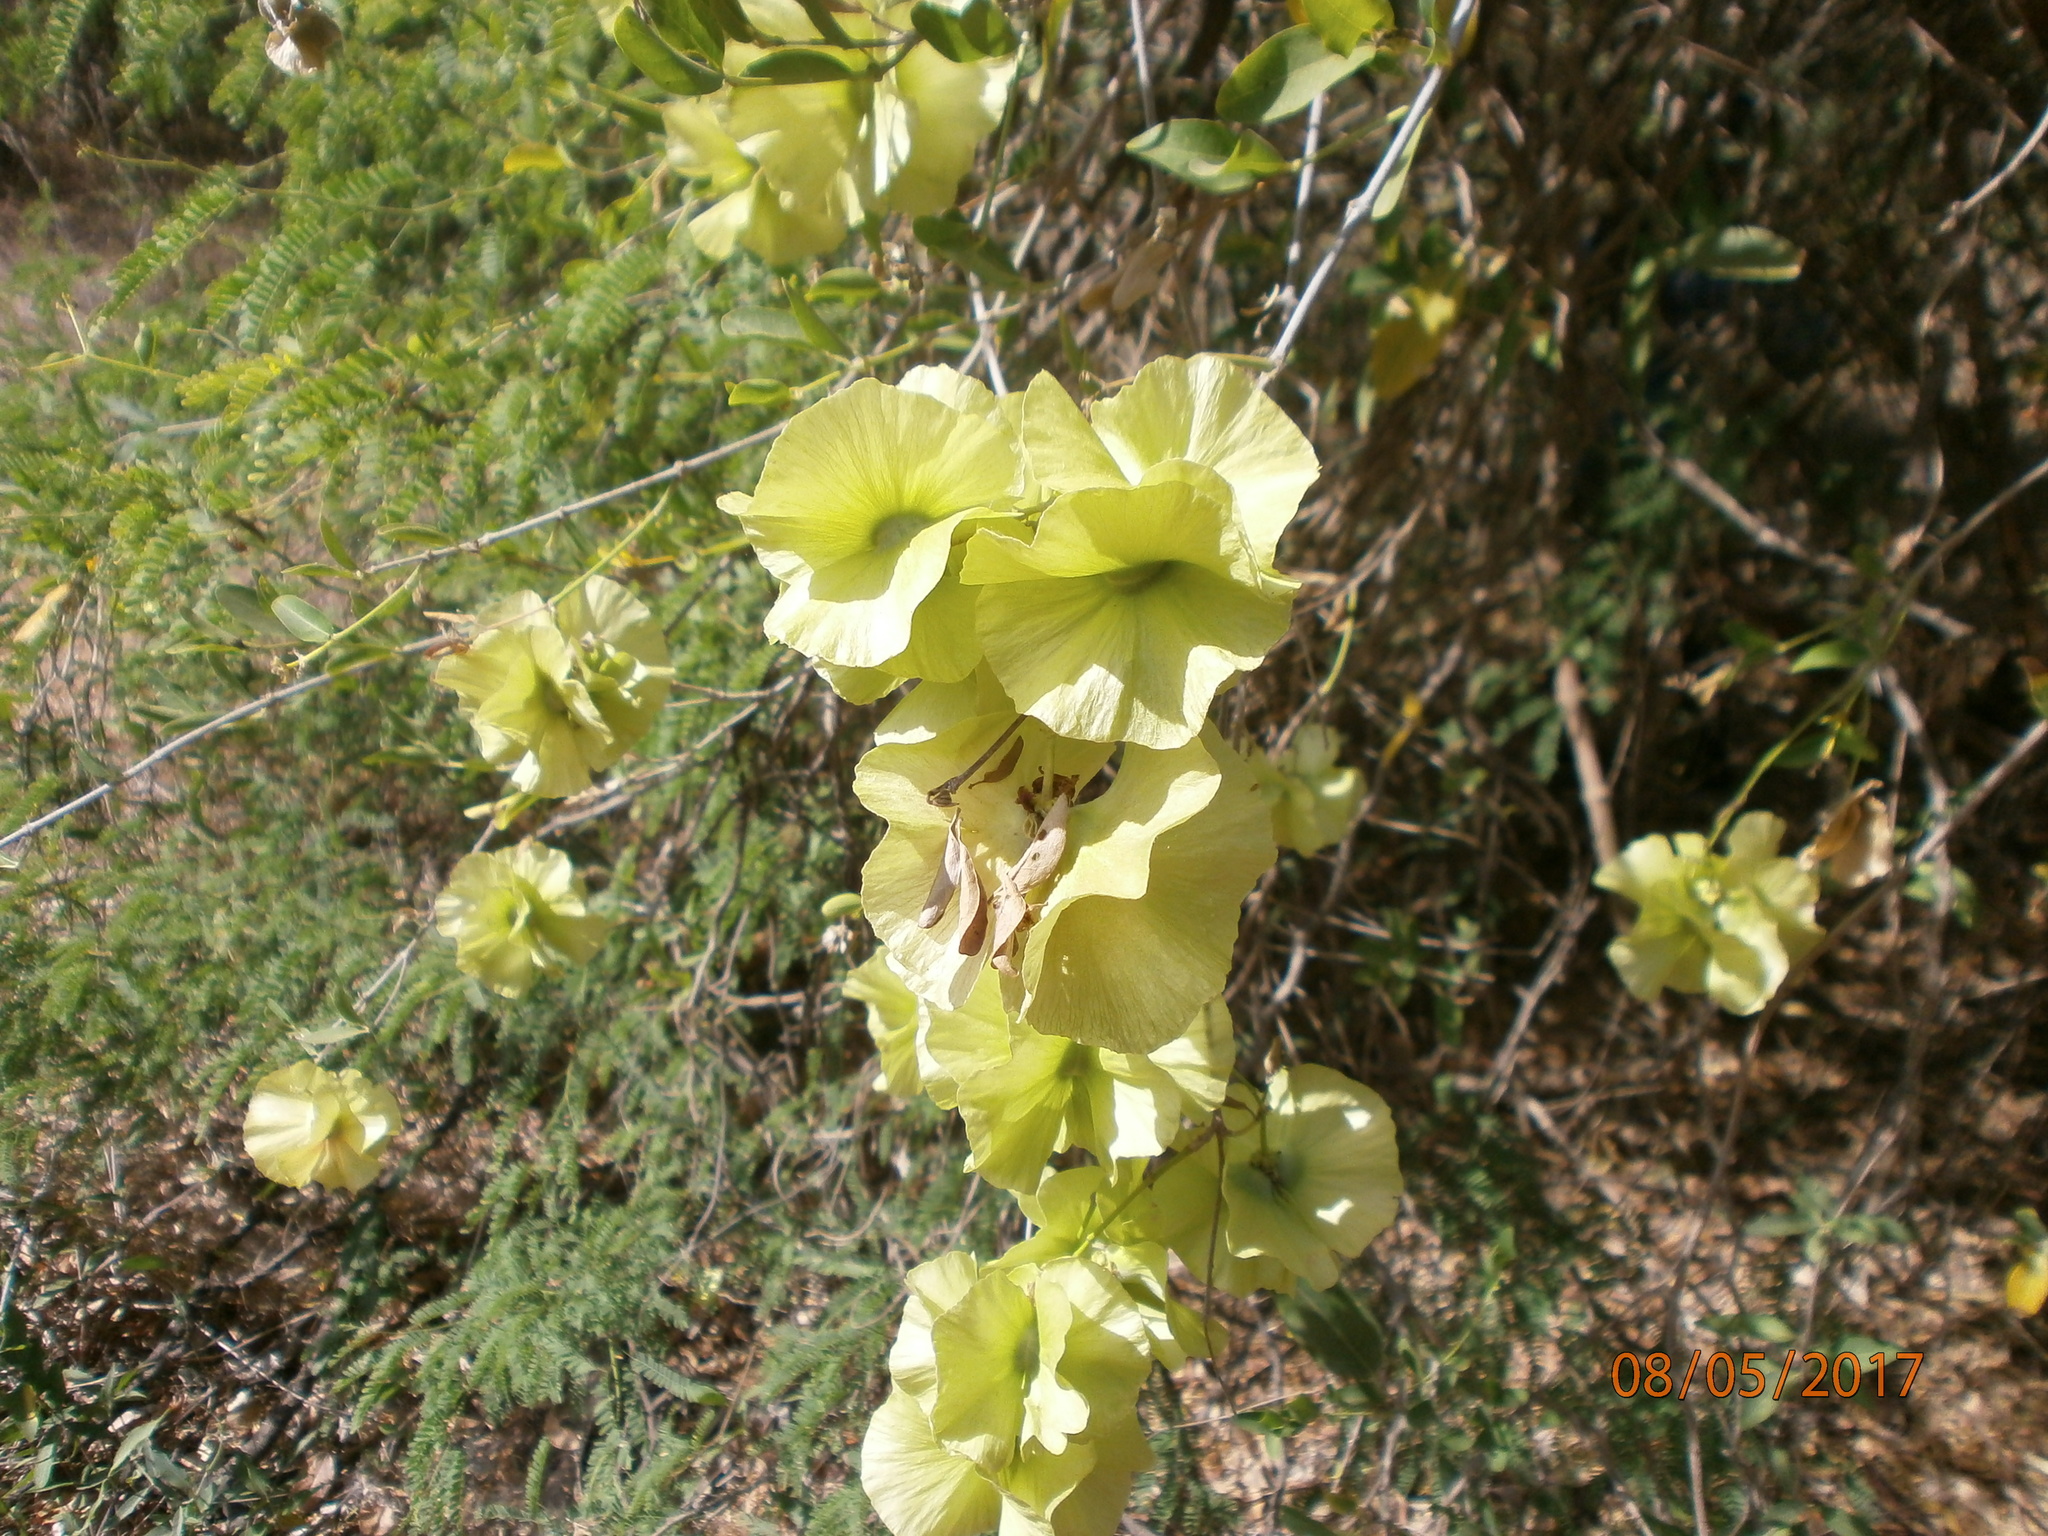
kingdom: Plantae
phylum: Tracheophyta
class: Magnoliopsida
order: Malpighiales
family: Malpighiaceae
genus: Callaeum
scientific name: Callaeum macropterum
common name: Mexican butterfly-vine
